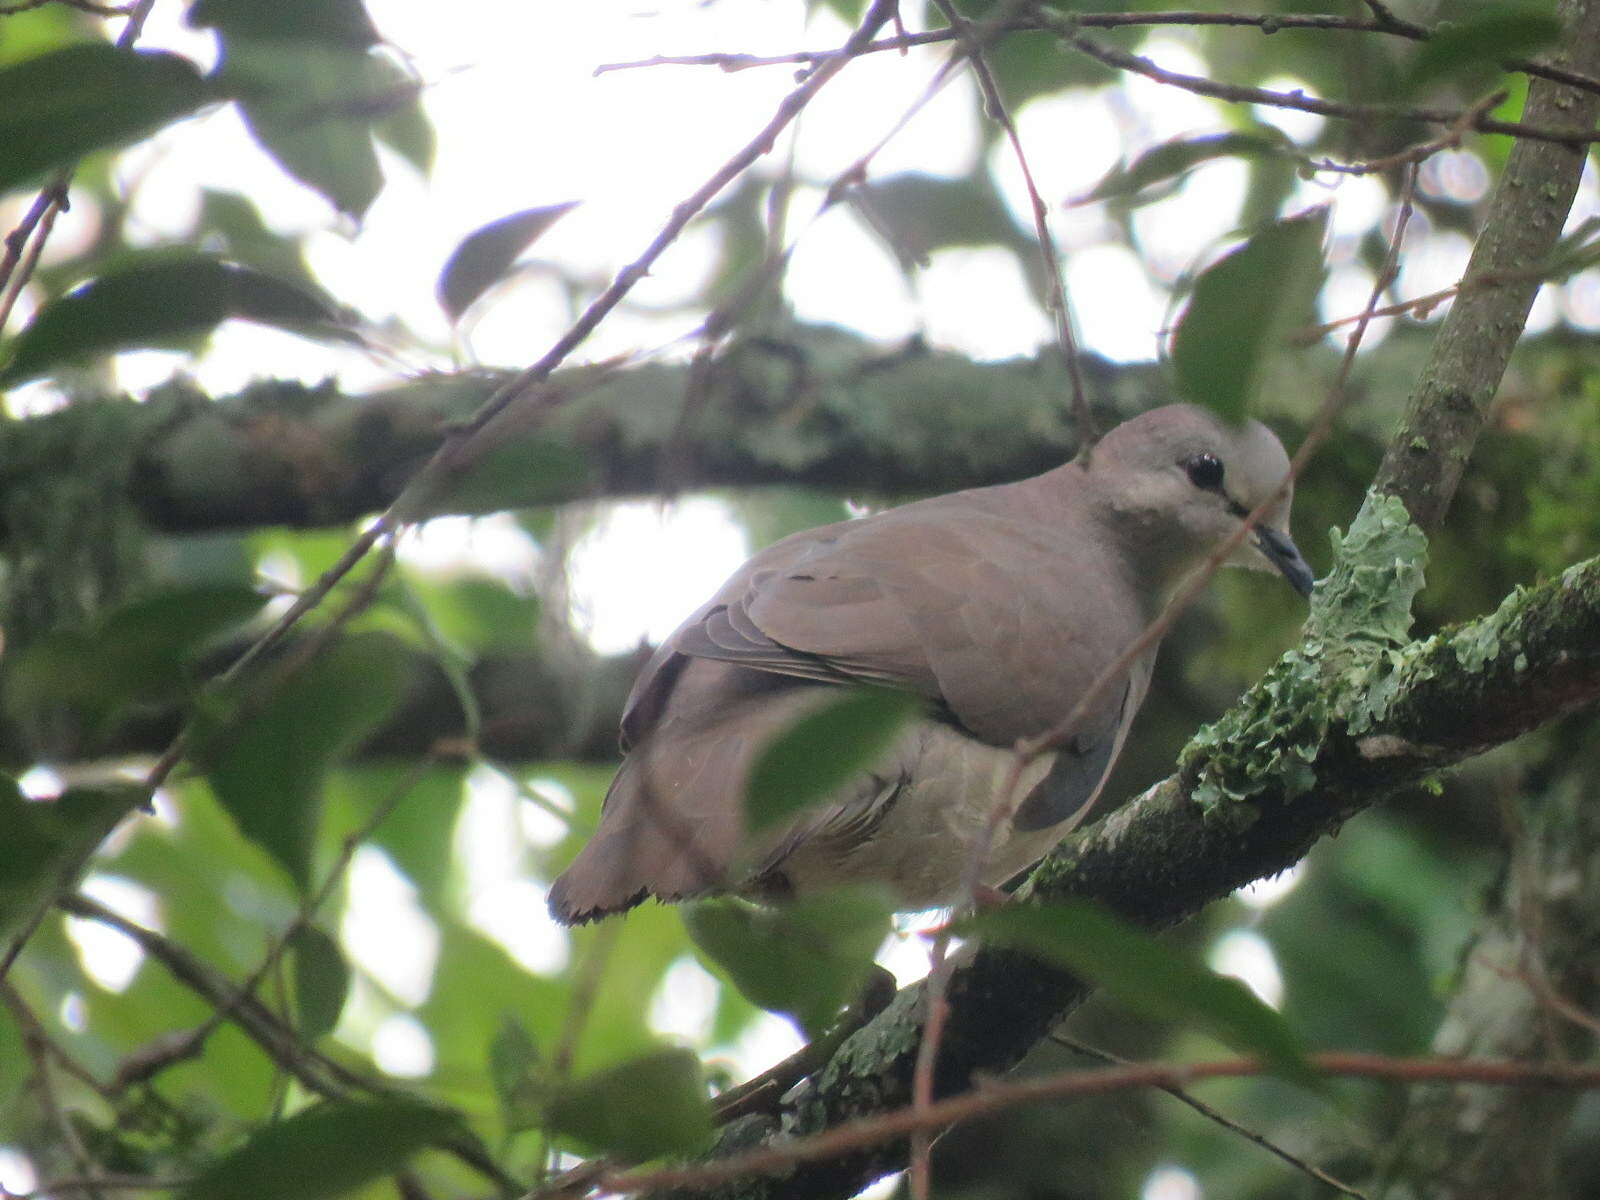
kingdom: Animalia
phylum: Chordata
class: Aves
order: Columbiformes
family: Columbidae
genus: Leptotila
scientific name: Leptotila verreauxi
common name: White-tipped dove
